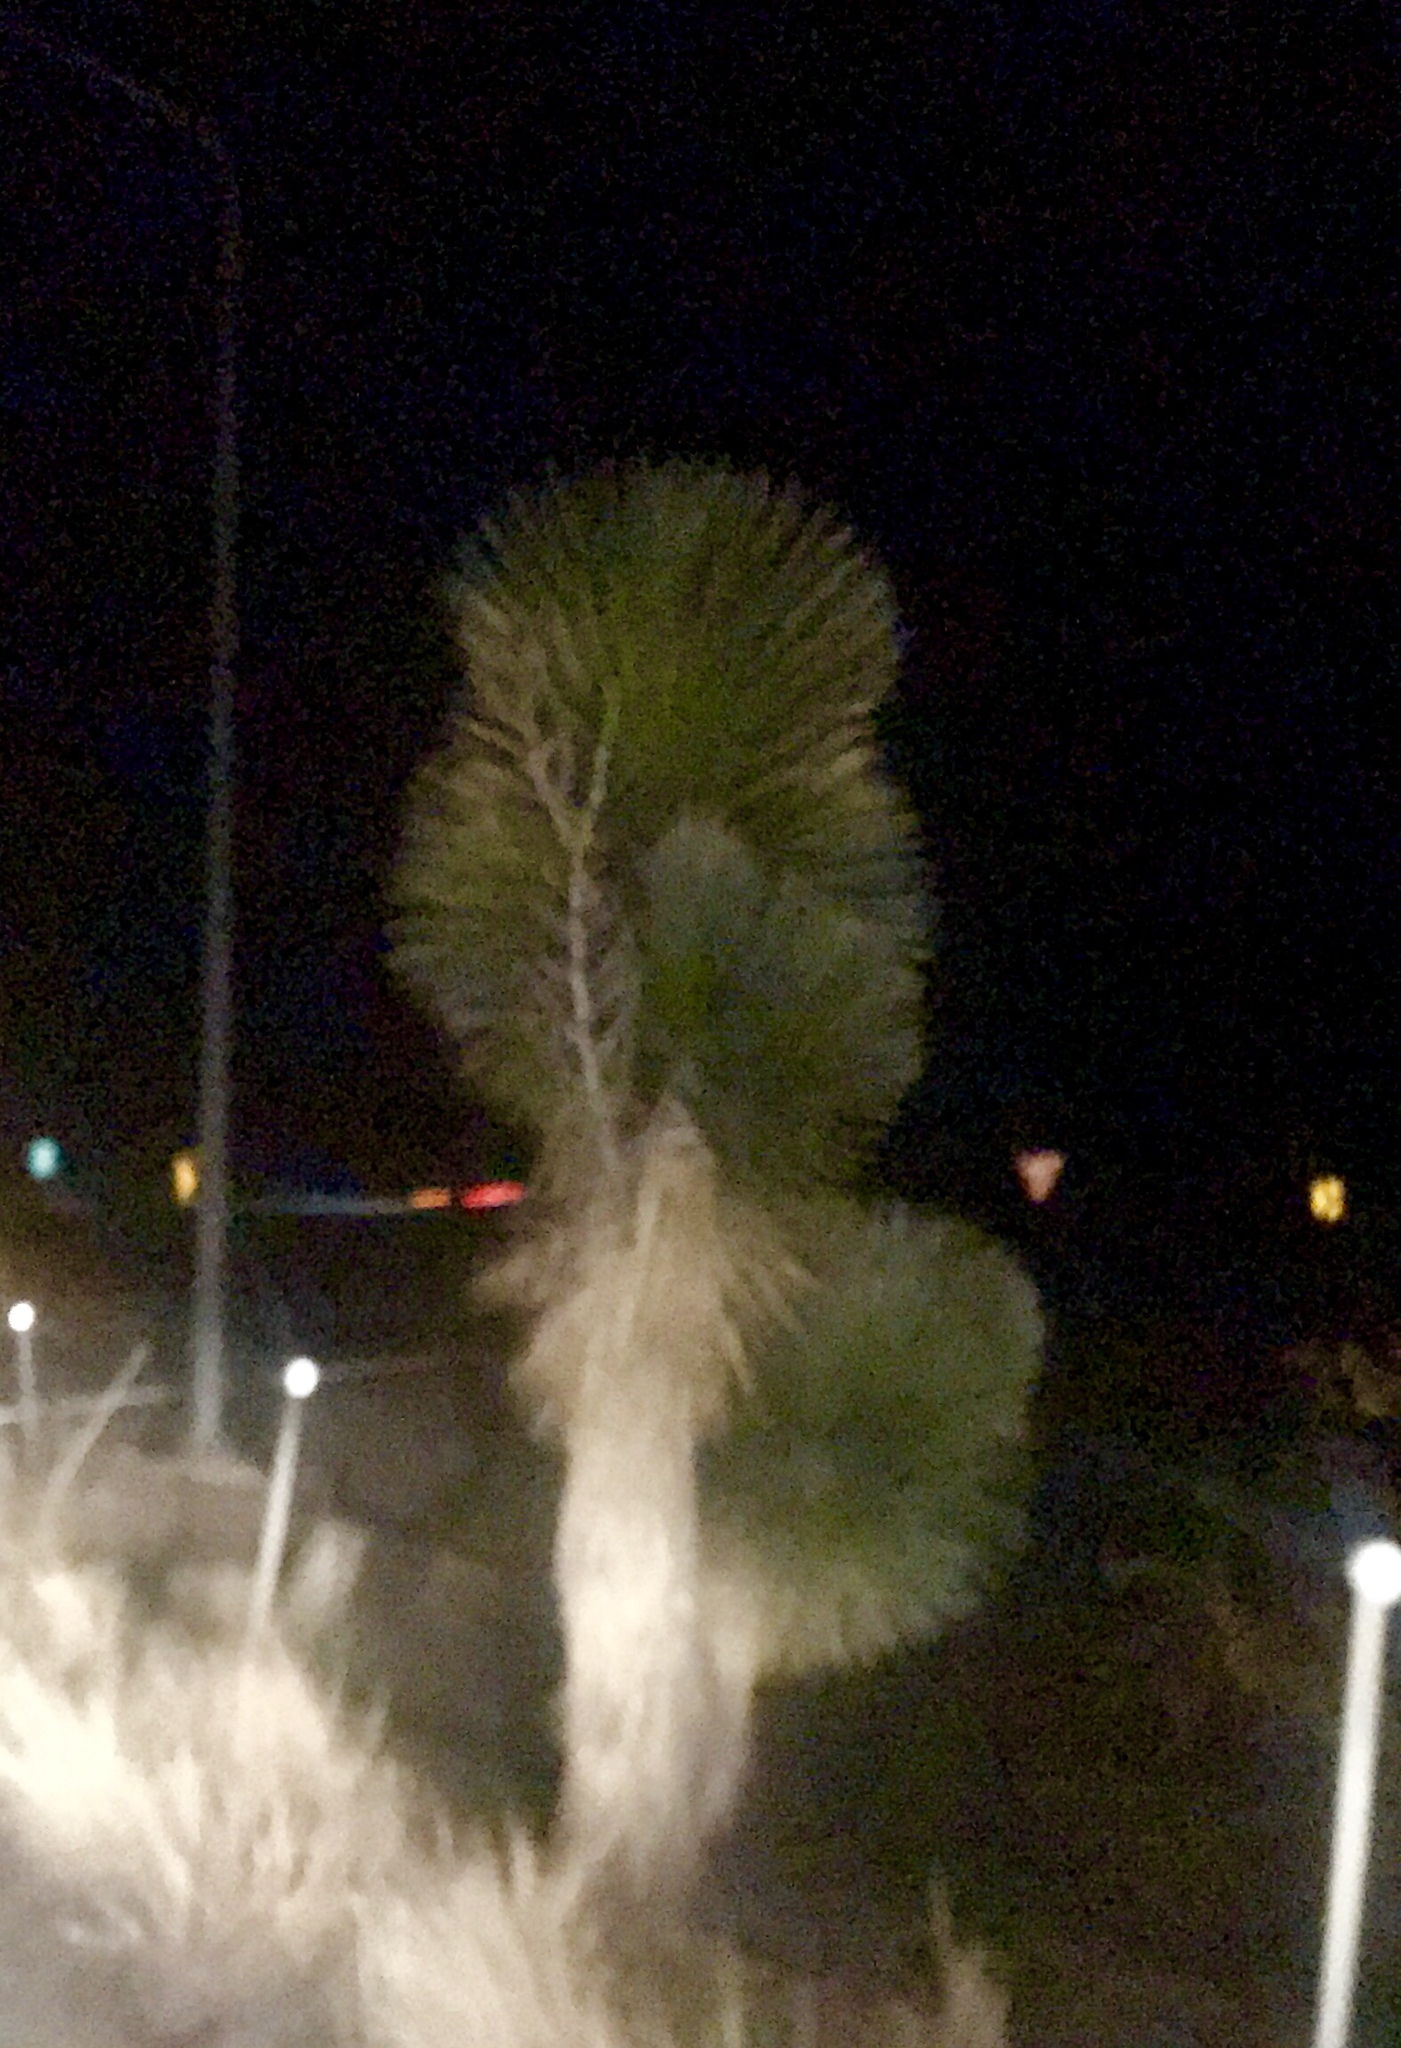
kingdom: Plantae
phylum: Tracheophyta
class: Liliopsida
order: Asparagales
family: Asparagaceae
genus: Yucca
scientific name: Yucca elata
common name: Palmella
